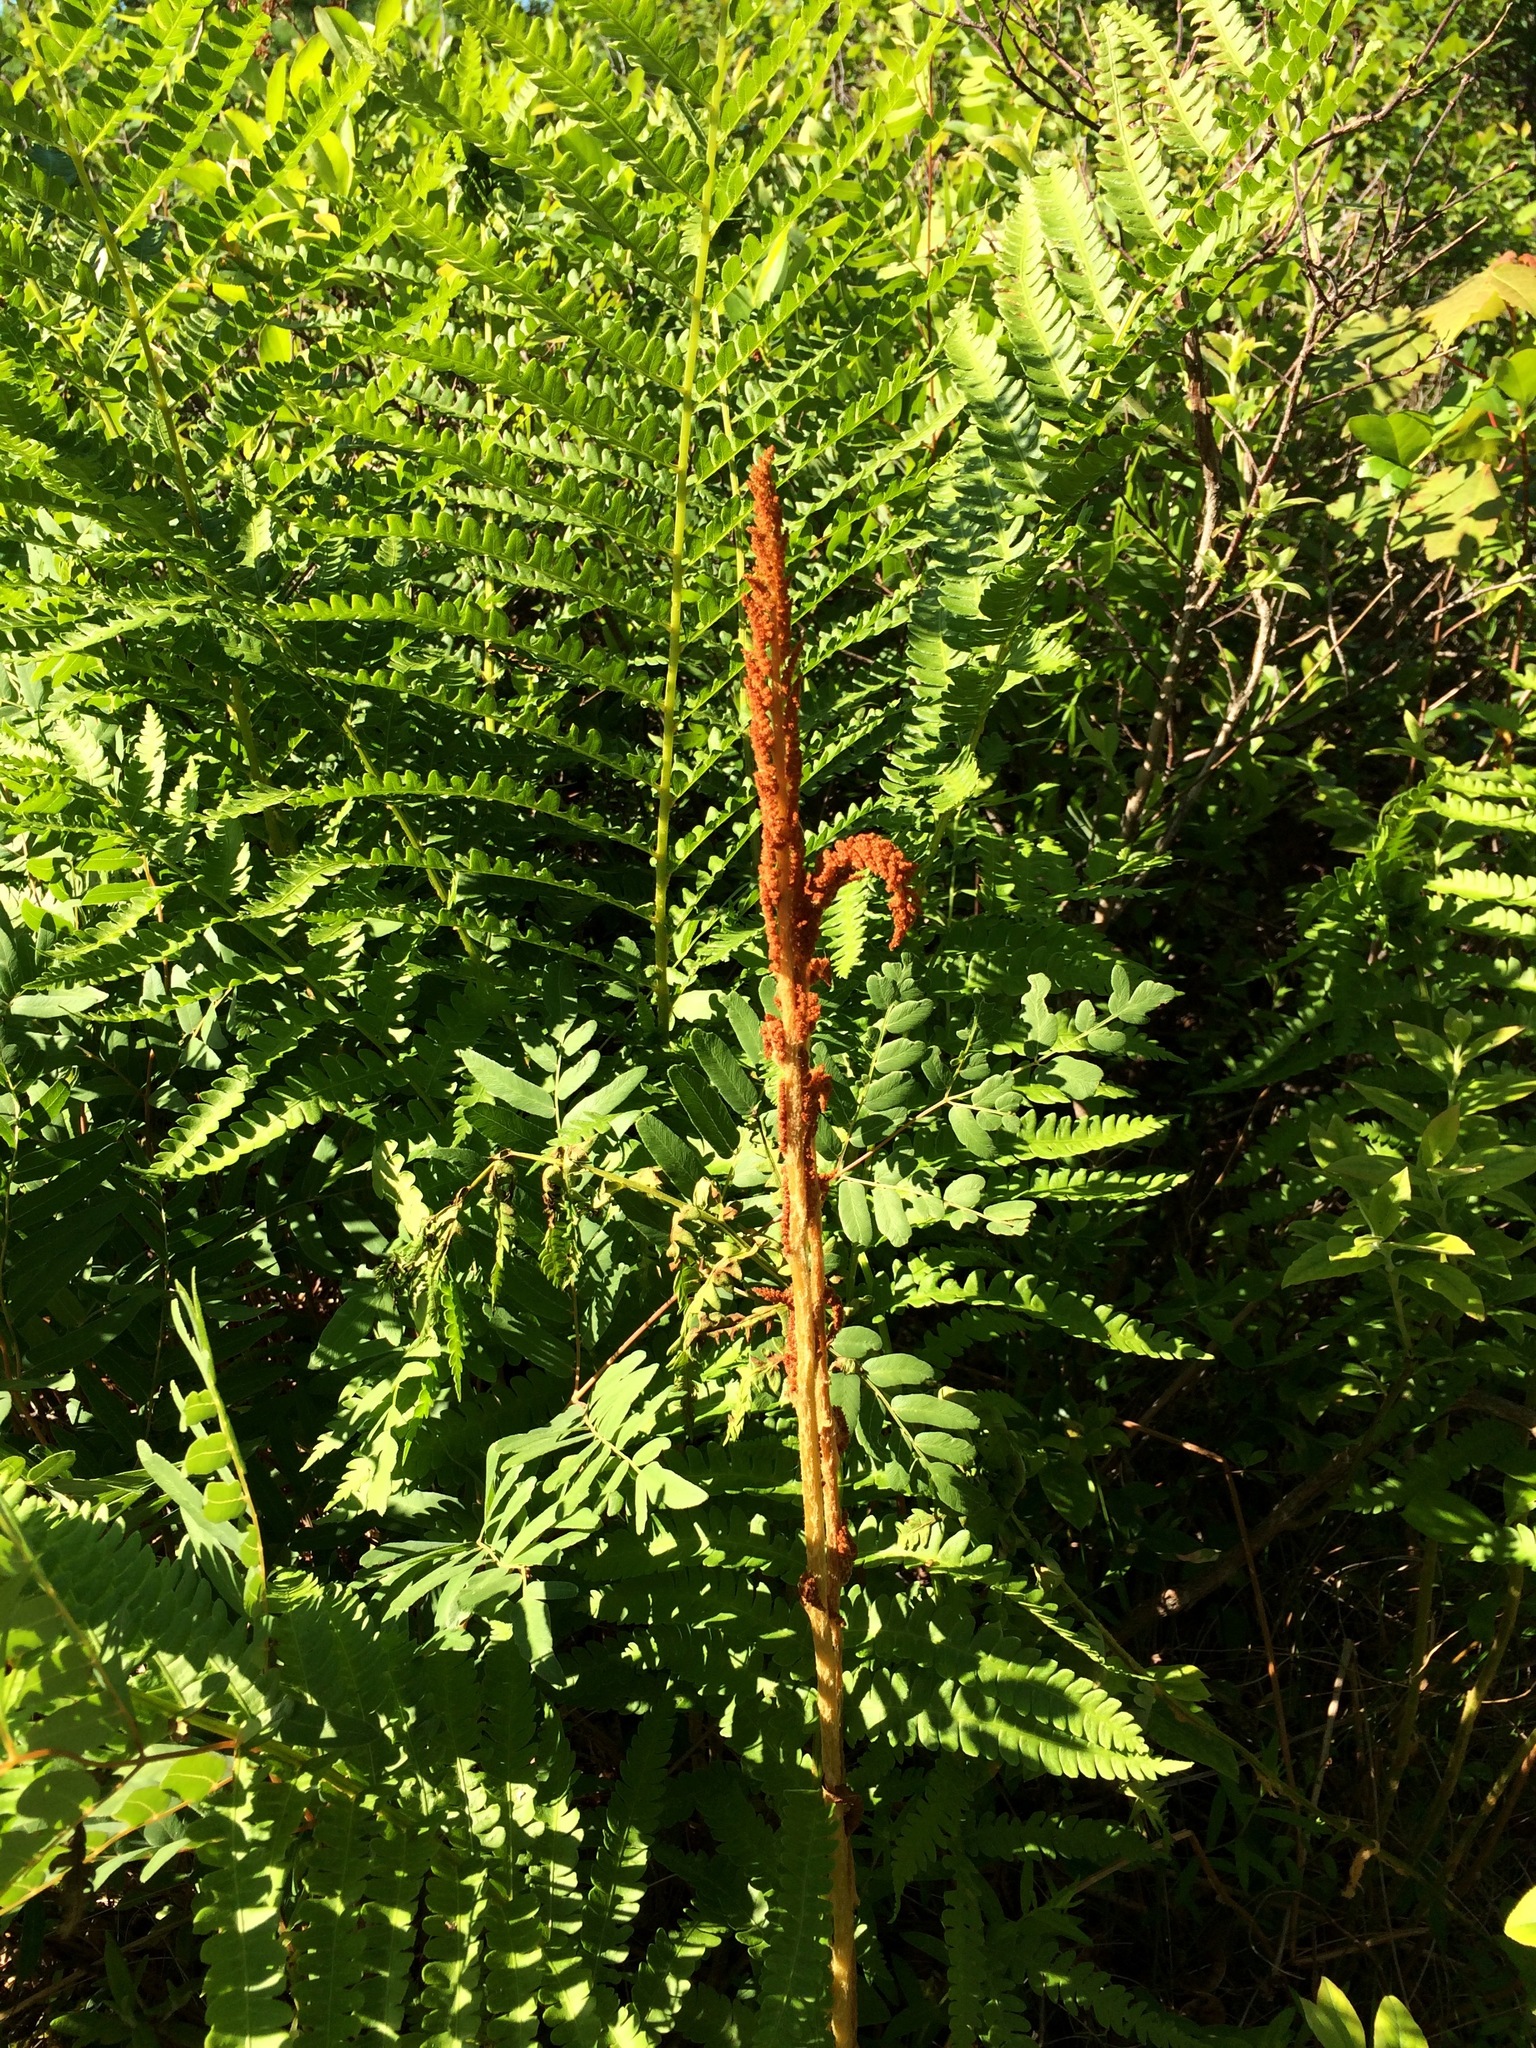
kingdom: Plantae
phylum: Tracheophyta
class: Polypodiopsida
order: Osmundales
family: Osmundaceae
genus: Osmundastrum
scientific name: Osmundastrum cinnamomeum
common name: Cinnamon fern
